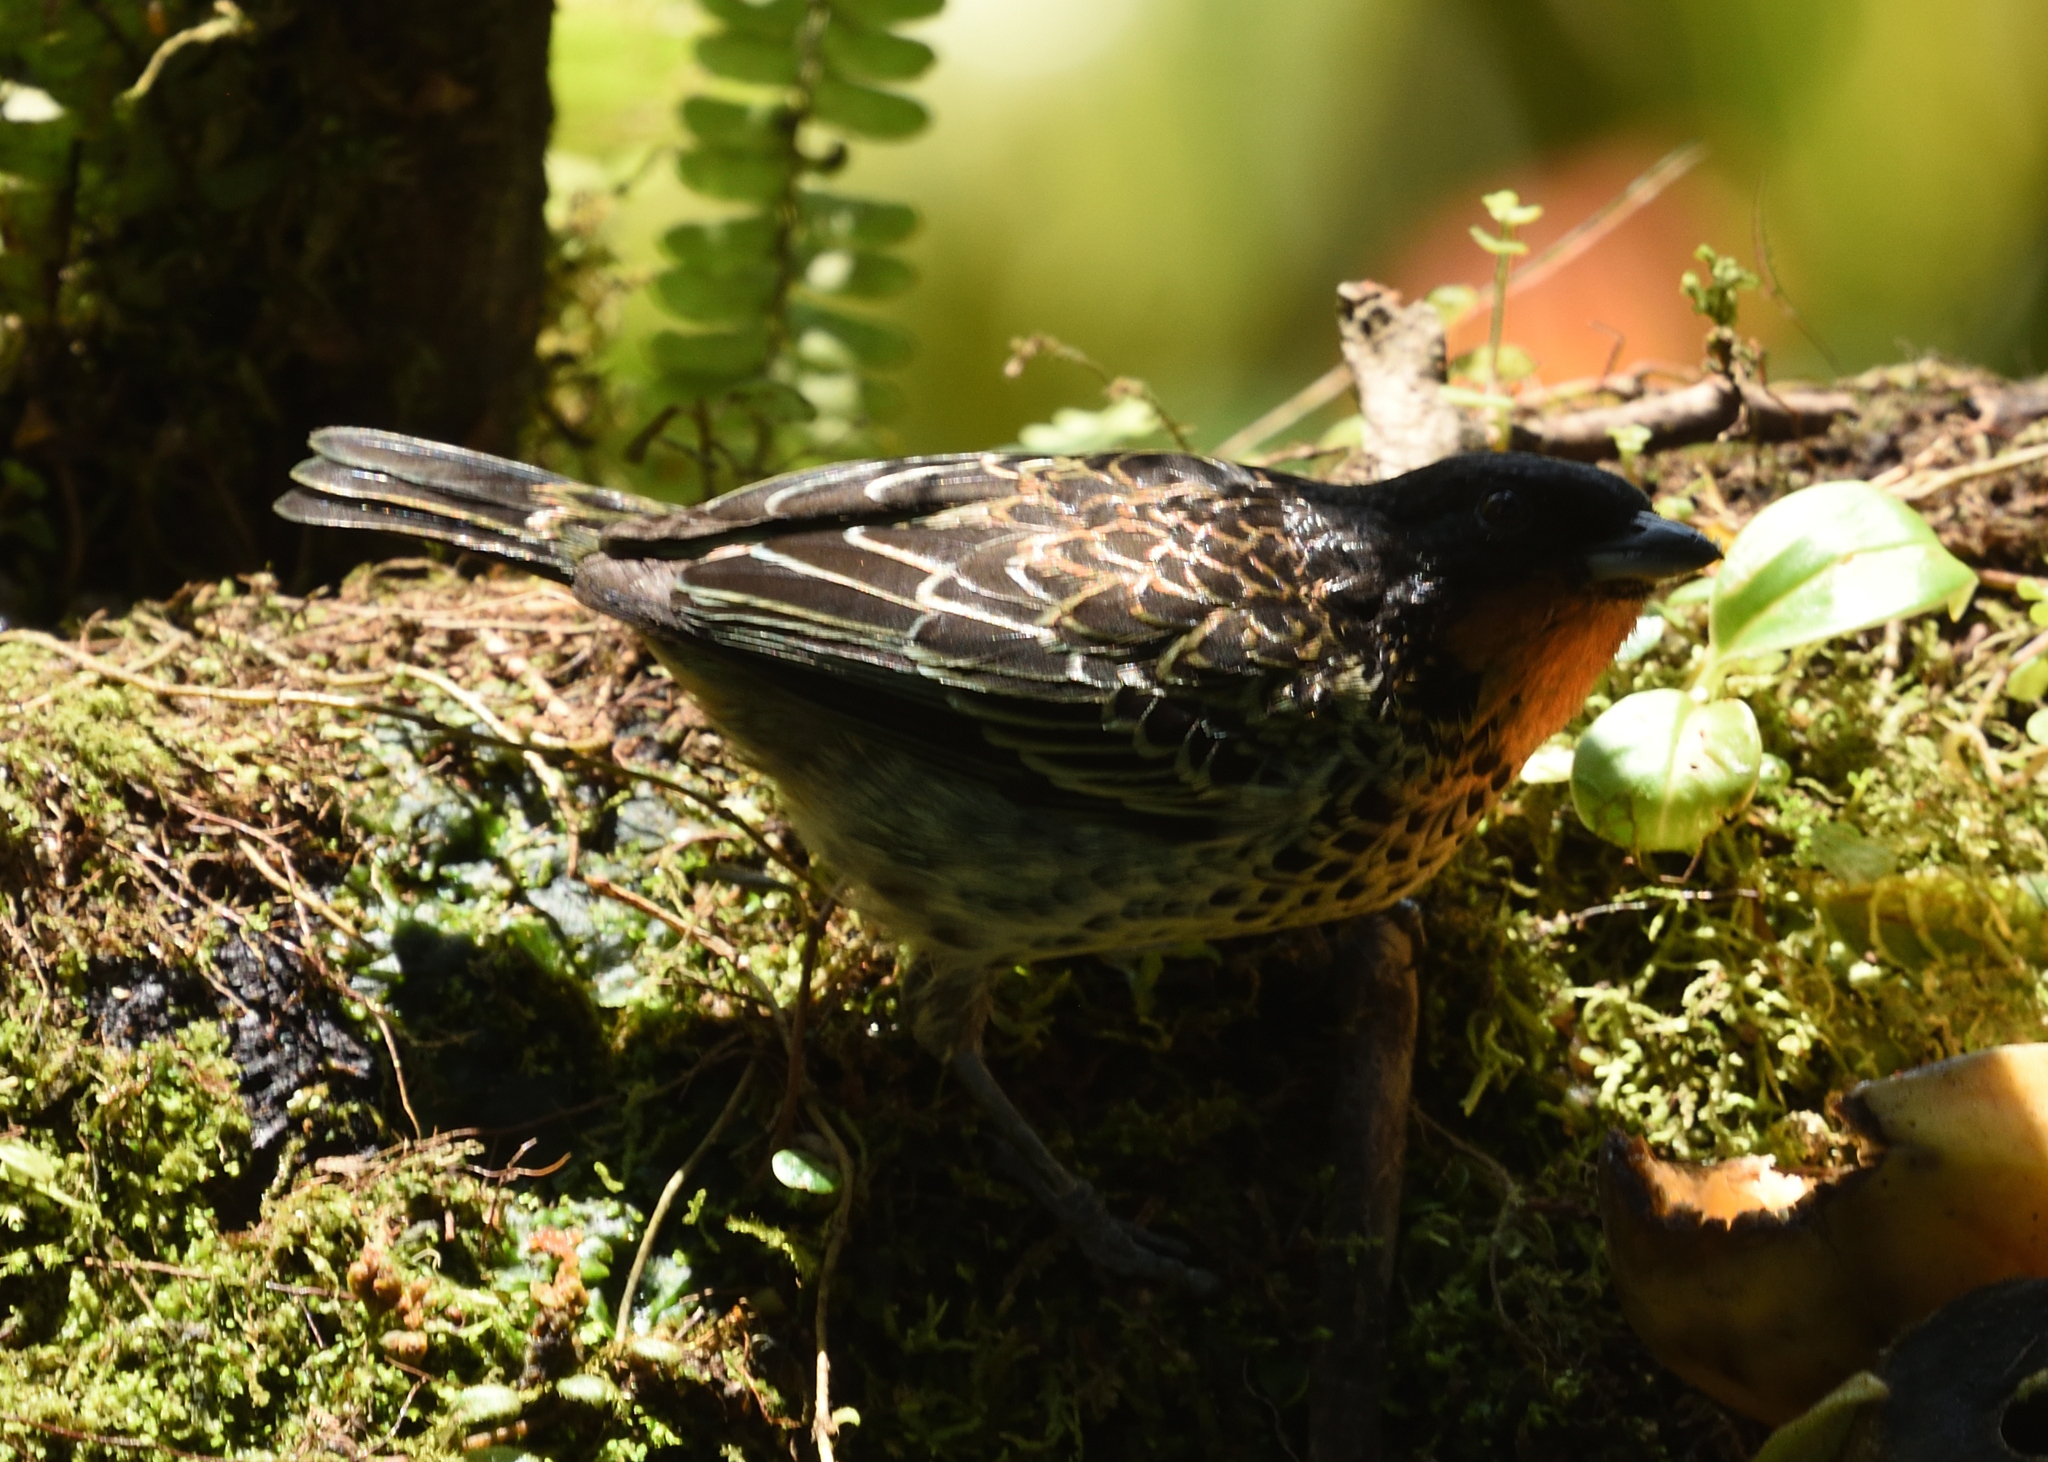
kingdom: Animalia
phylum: Chordata
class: Aves
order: Passeriformes
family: Thraupidae
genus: Ixothraupis
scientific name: Ixothraupis rufigula
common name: Rufous-throated tanager
